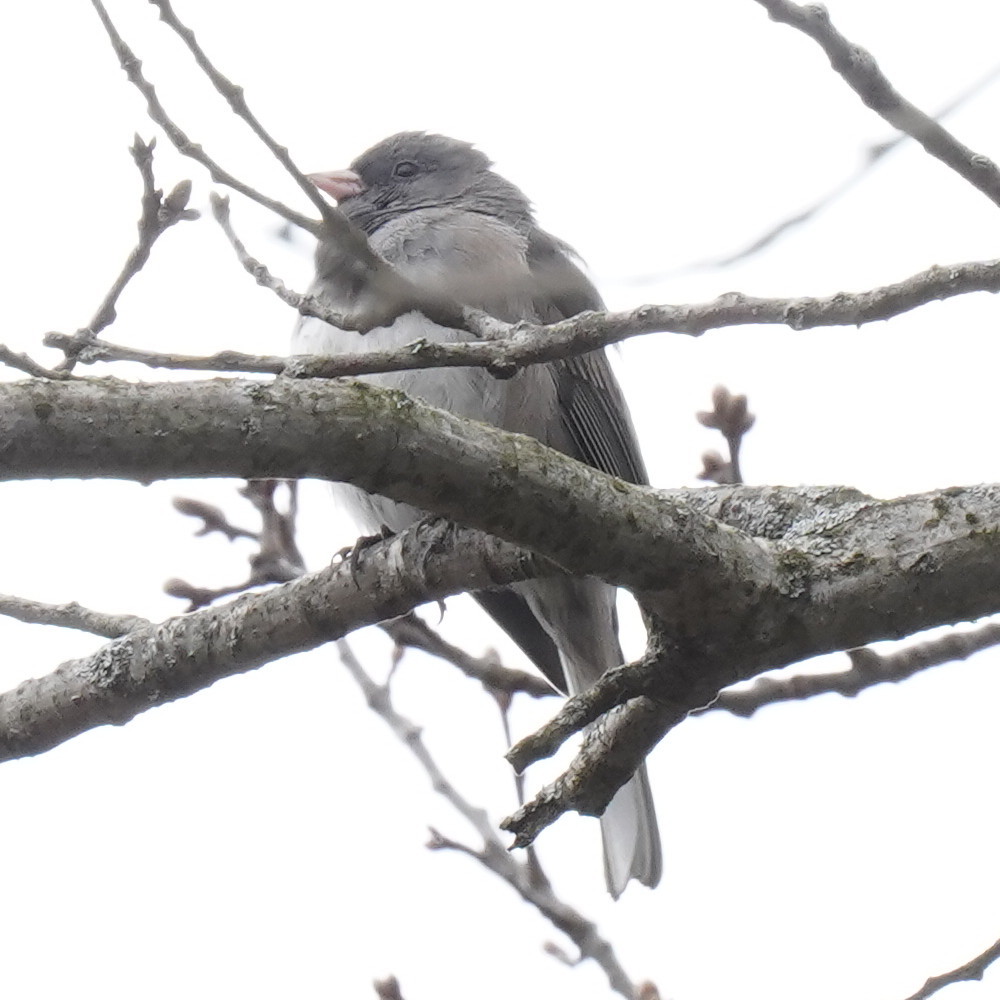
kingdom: Animalia
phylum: Chordata
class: Aves
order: Passeriformes
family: Passerellidae
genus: Junco
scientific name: Junco hyemalis
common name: Dark-eyed junco
